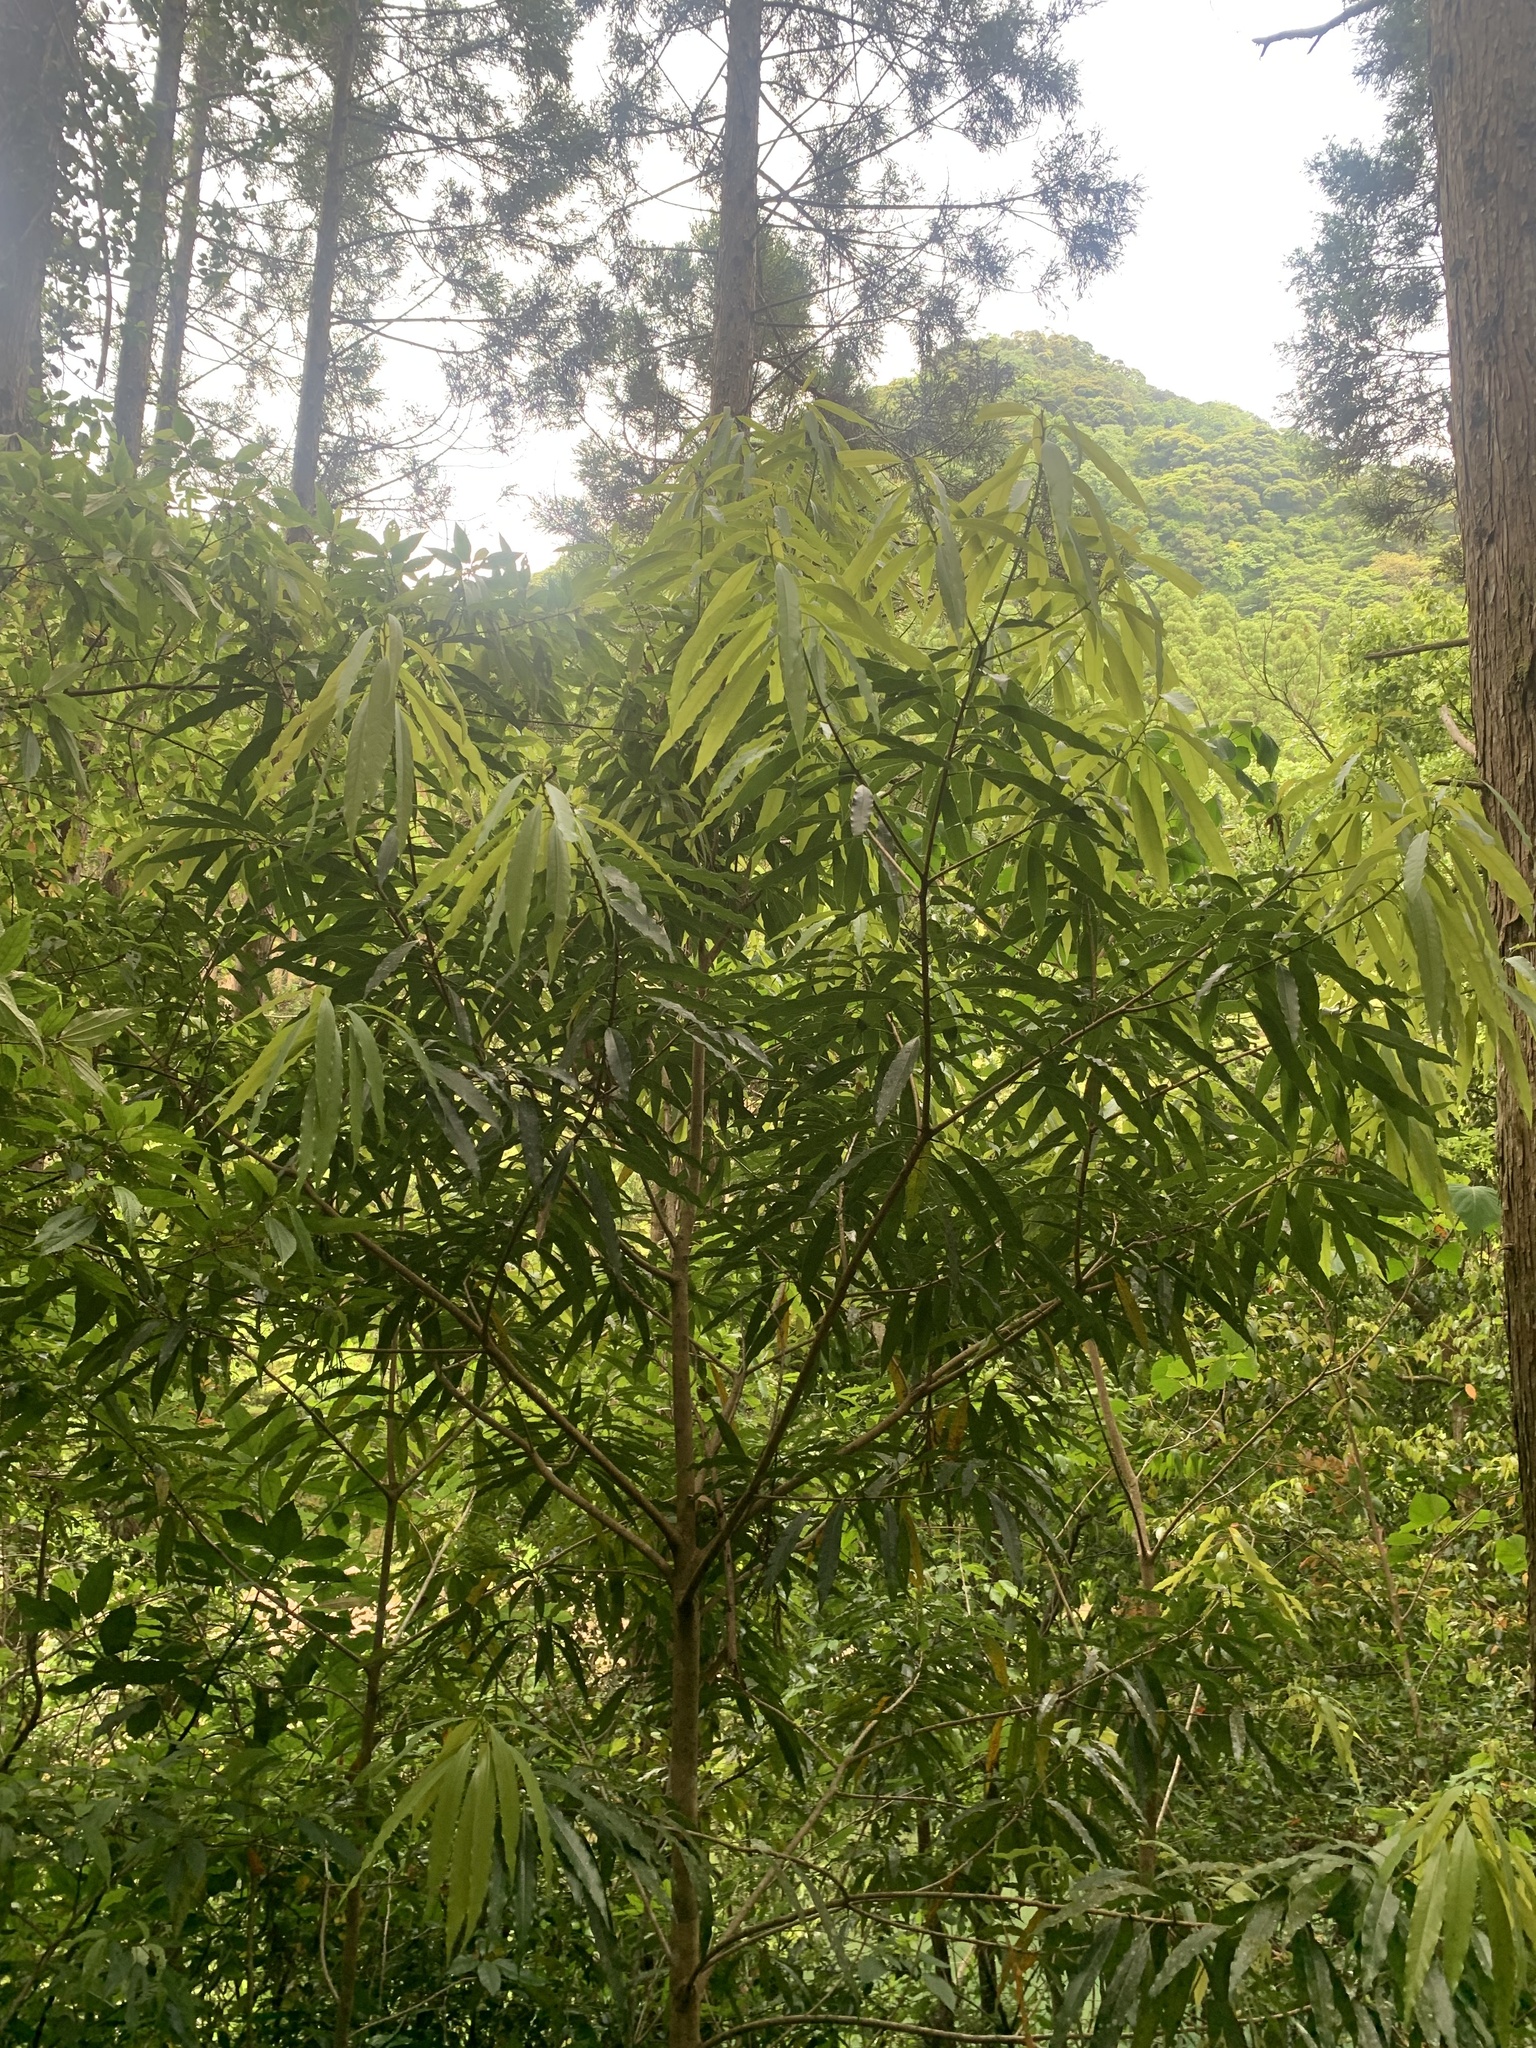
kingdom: Plantae
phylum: Tracheophyta
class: Magnoliopsida
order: Laurales
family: Lauraceae
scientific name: Lauraceae
